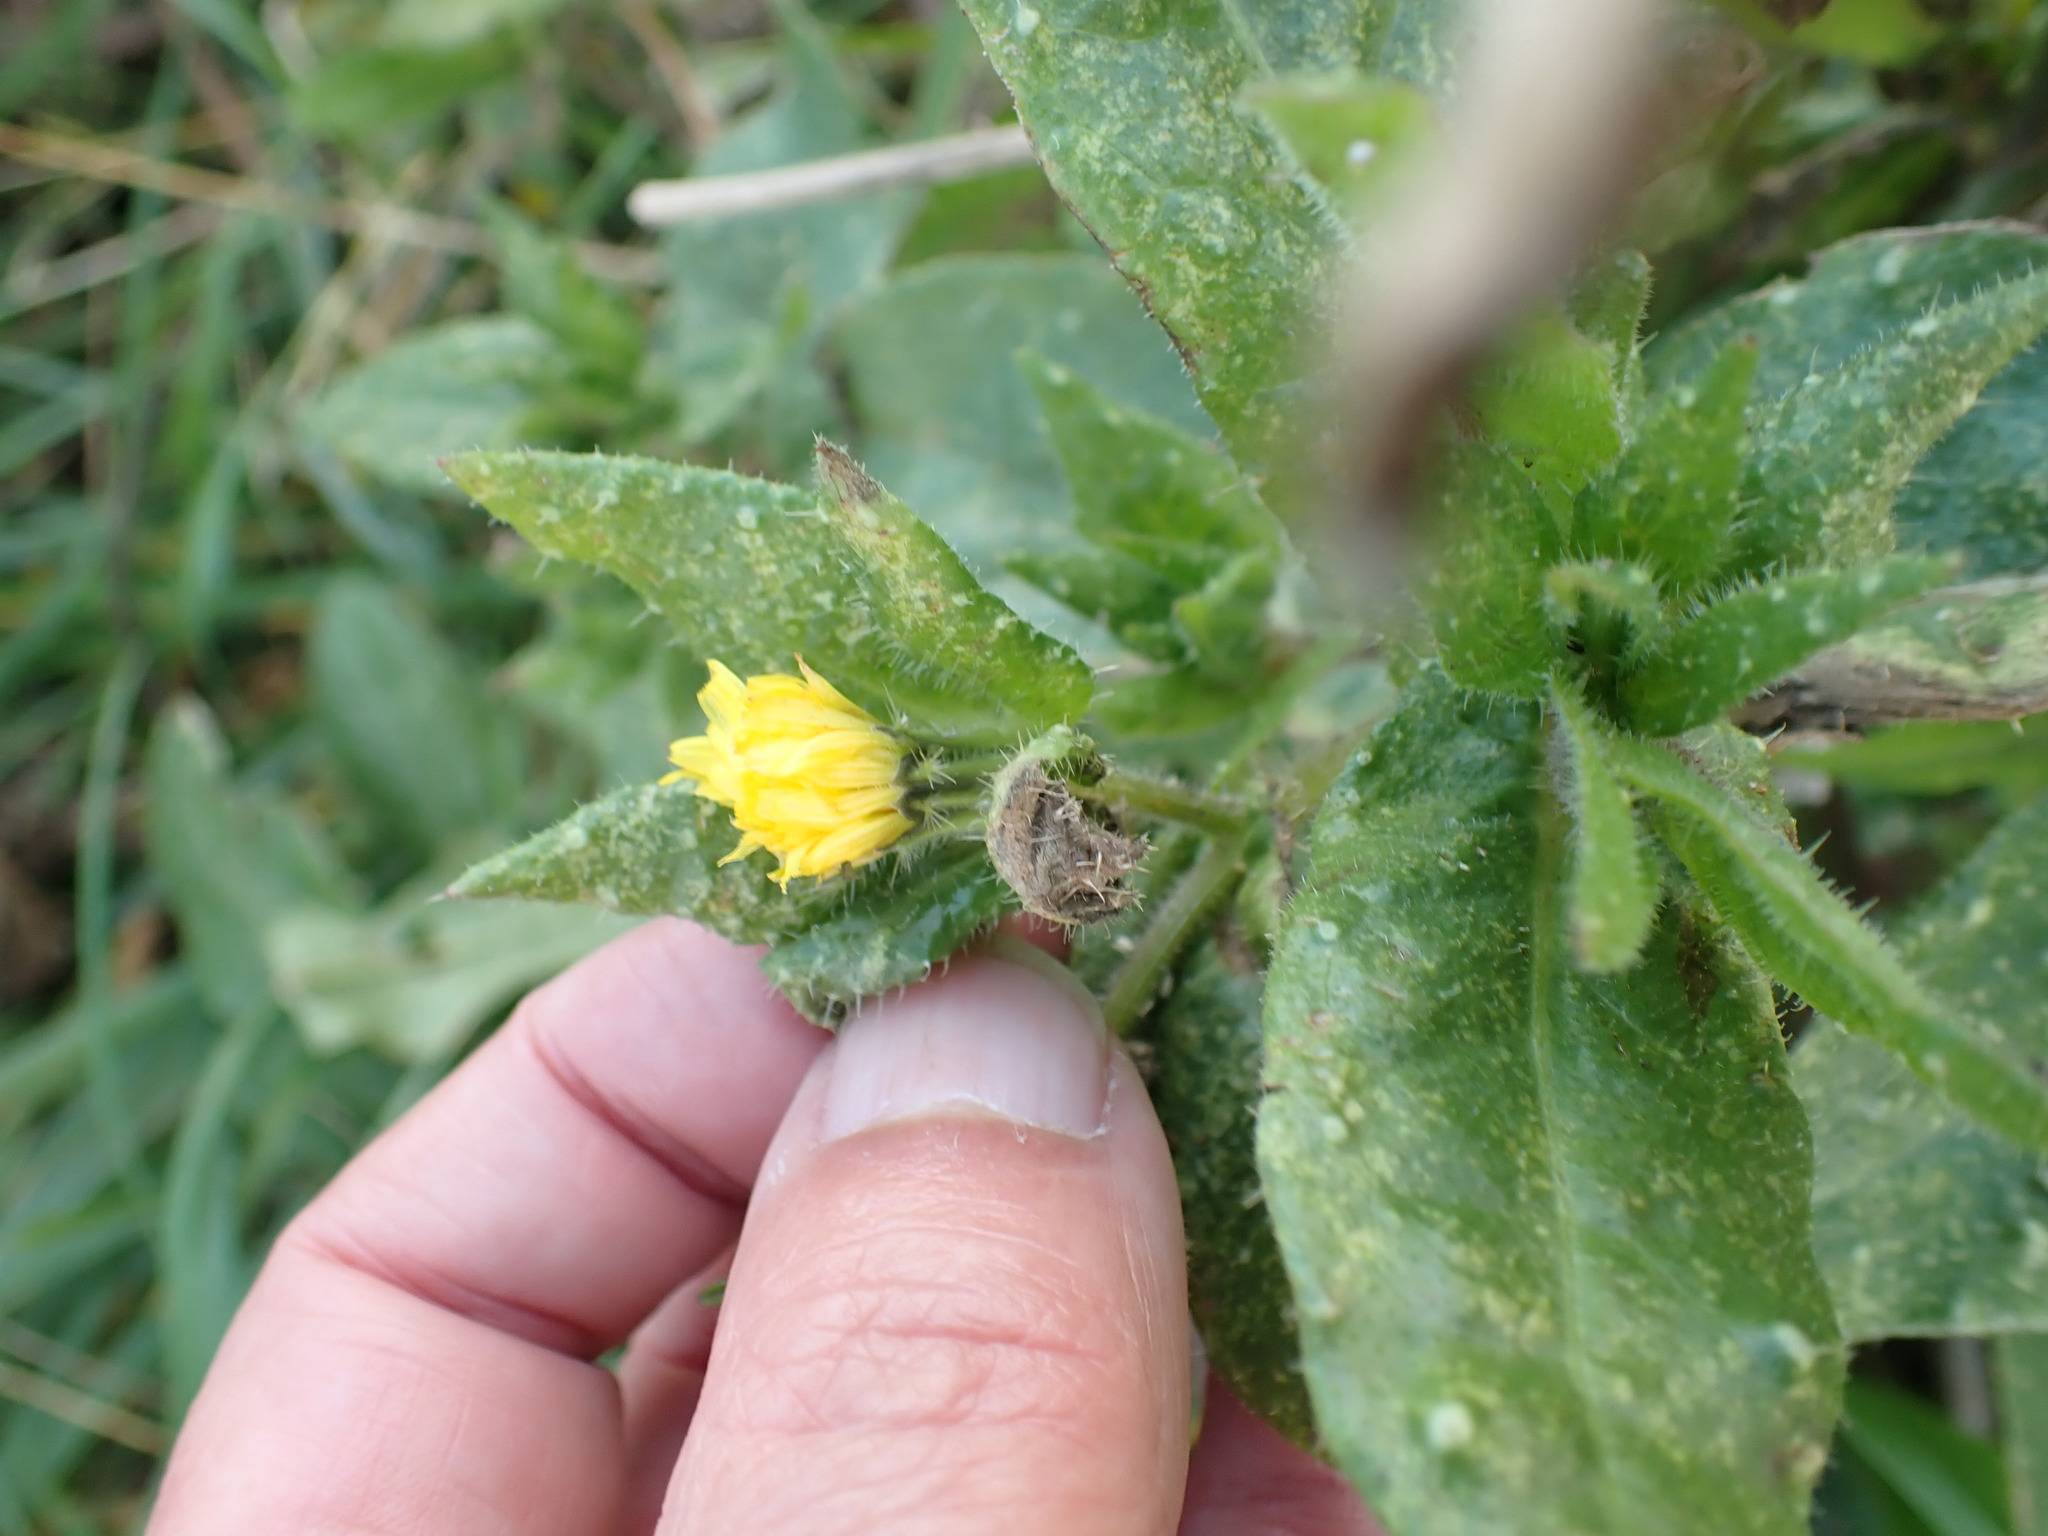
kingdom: Plantae
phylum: Tracheophyta
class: Magnoliopsida
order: Asterales
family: Asteraceae
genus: Helminthotheca
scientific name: Helminthotheca echioides
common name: Ox-tongue
